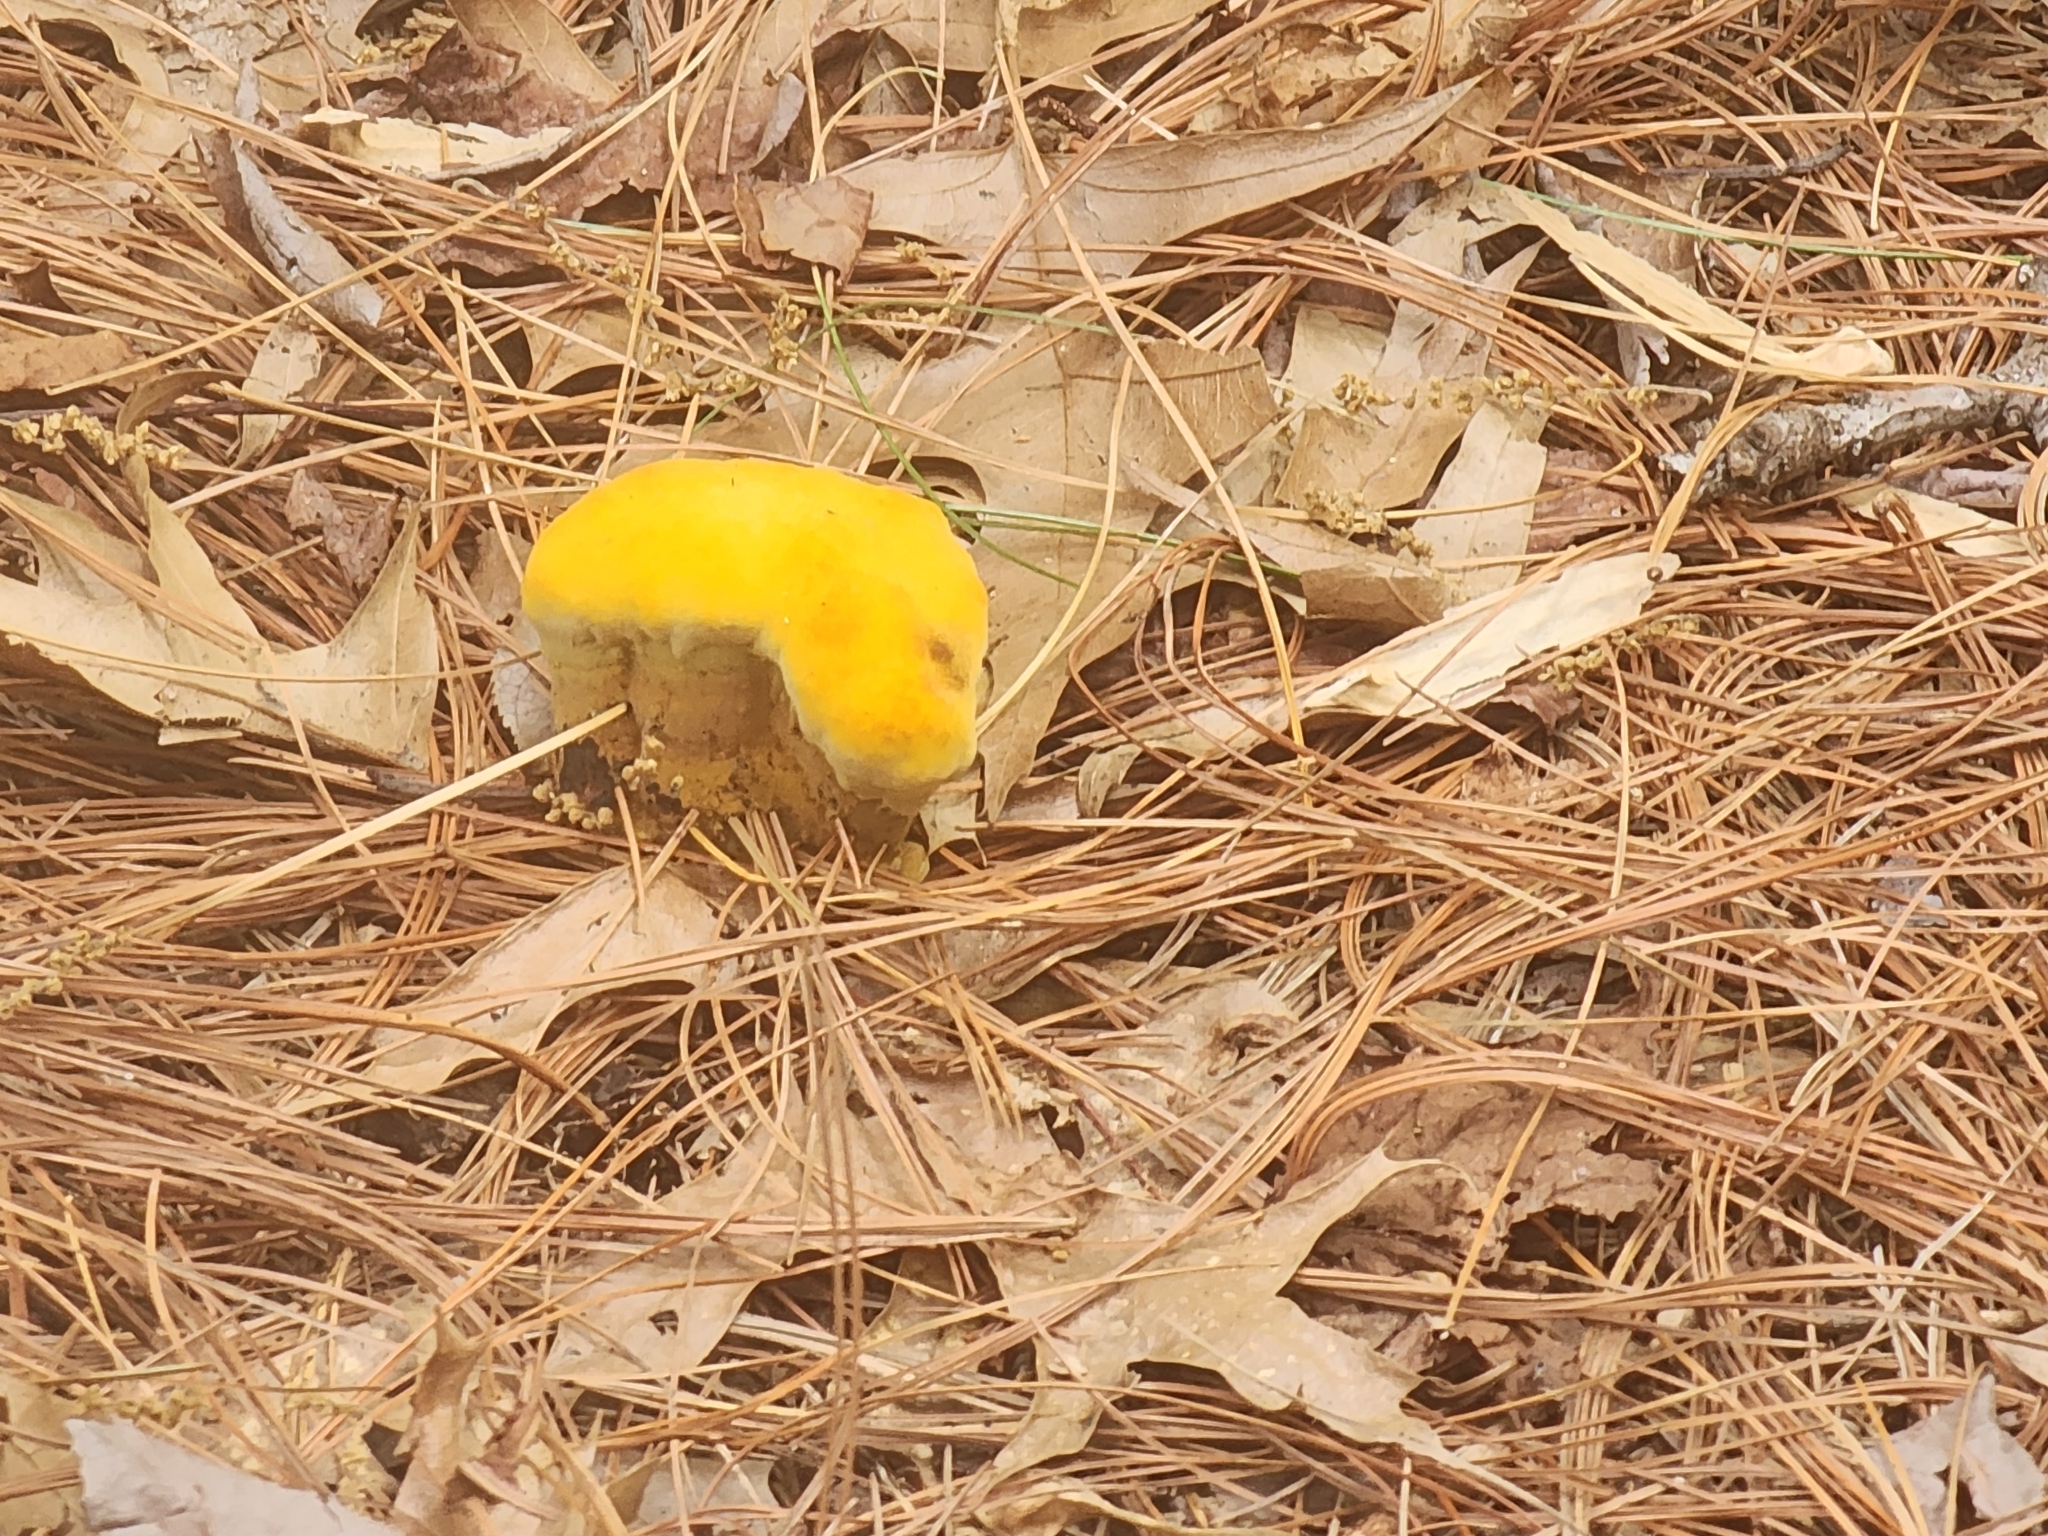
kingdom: Fungi
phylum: Basidiomycota
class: Agaricomycetes
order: Polyporales
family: Laetiporaceae
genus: Phaeolus
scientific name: Phaeolus schweinitzii
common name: Dyer's mazegill
